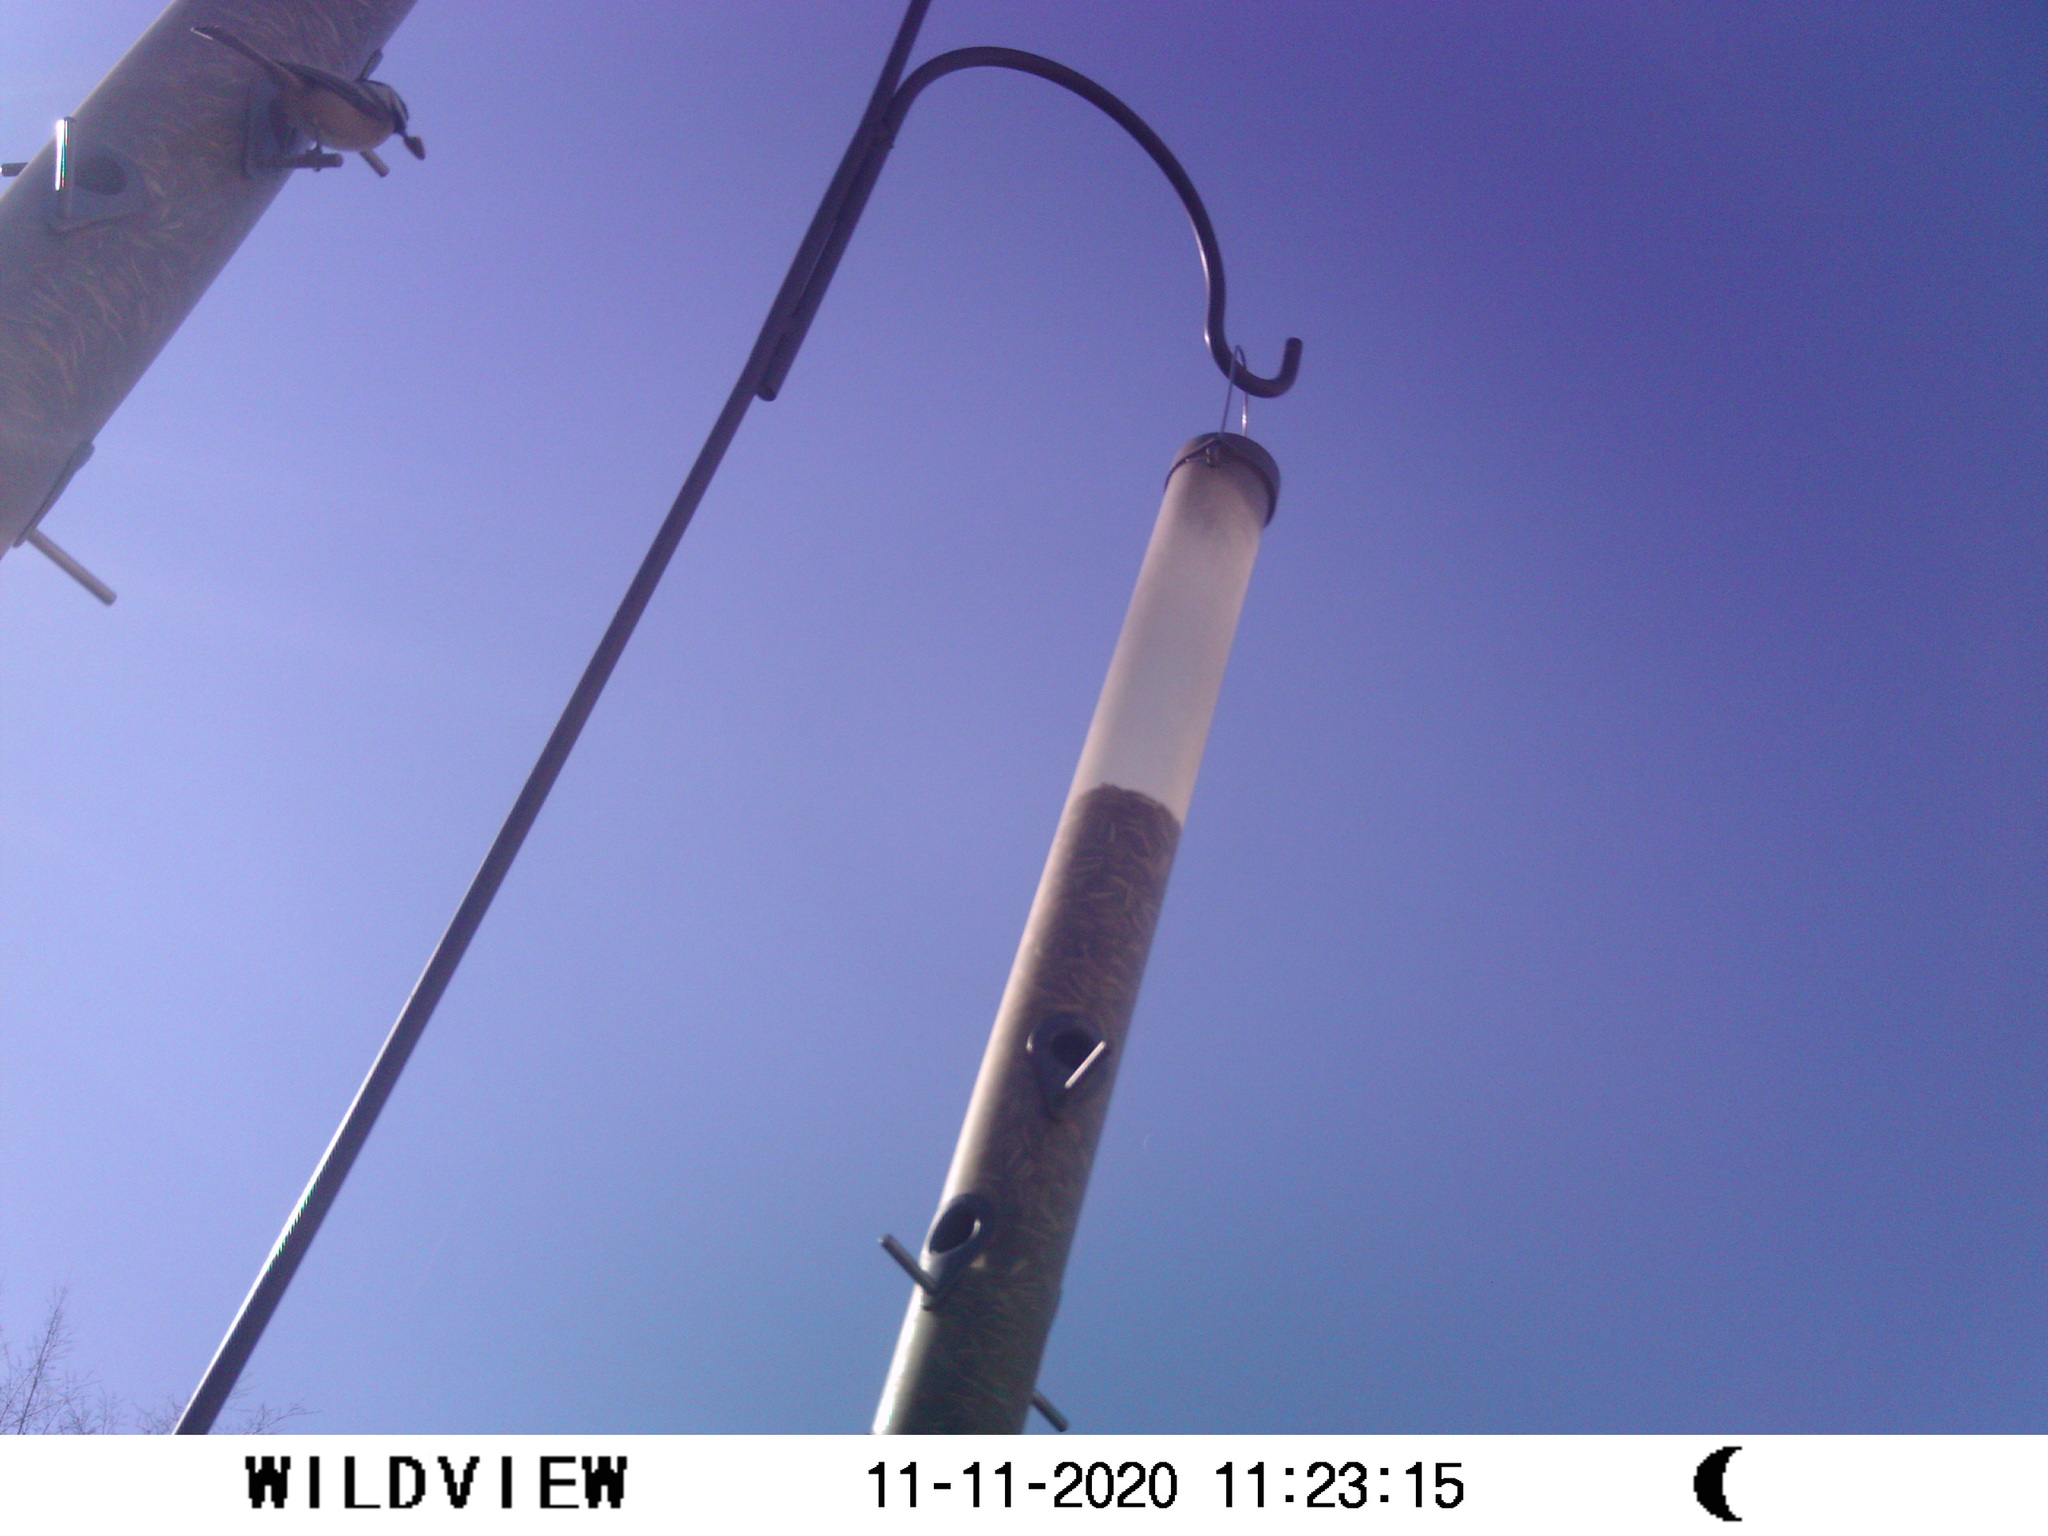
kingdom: Animalia
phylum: Chordata
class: Aves
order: Passeriformes
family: Paridae
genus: Poecile
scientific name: Poecile atricapillus
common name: Black-capped chickadee
